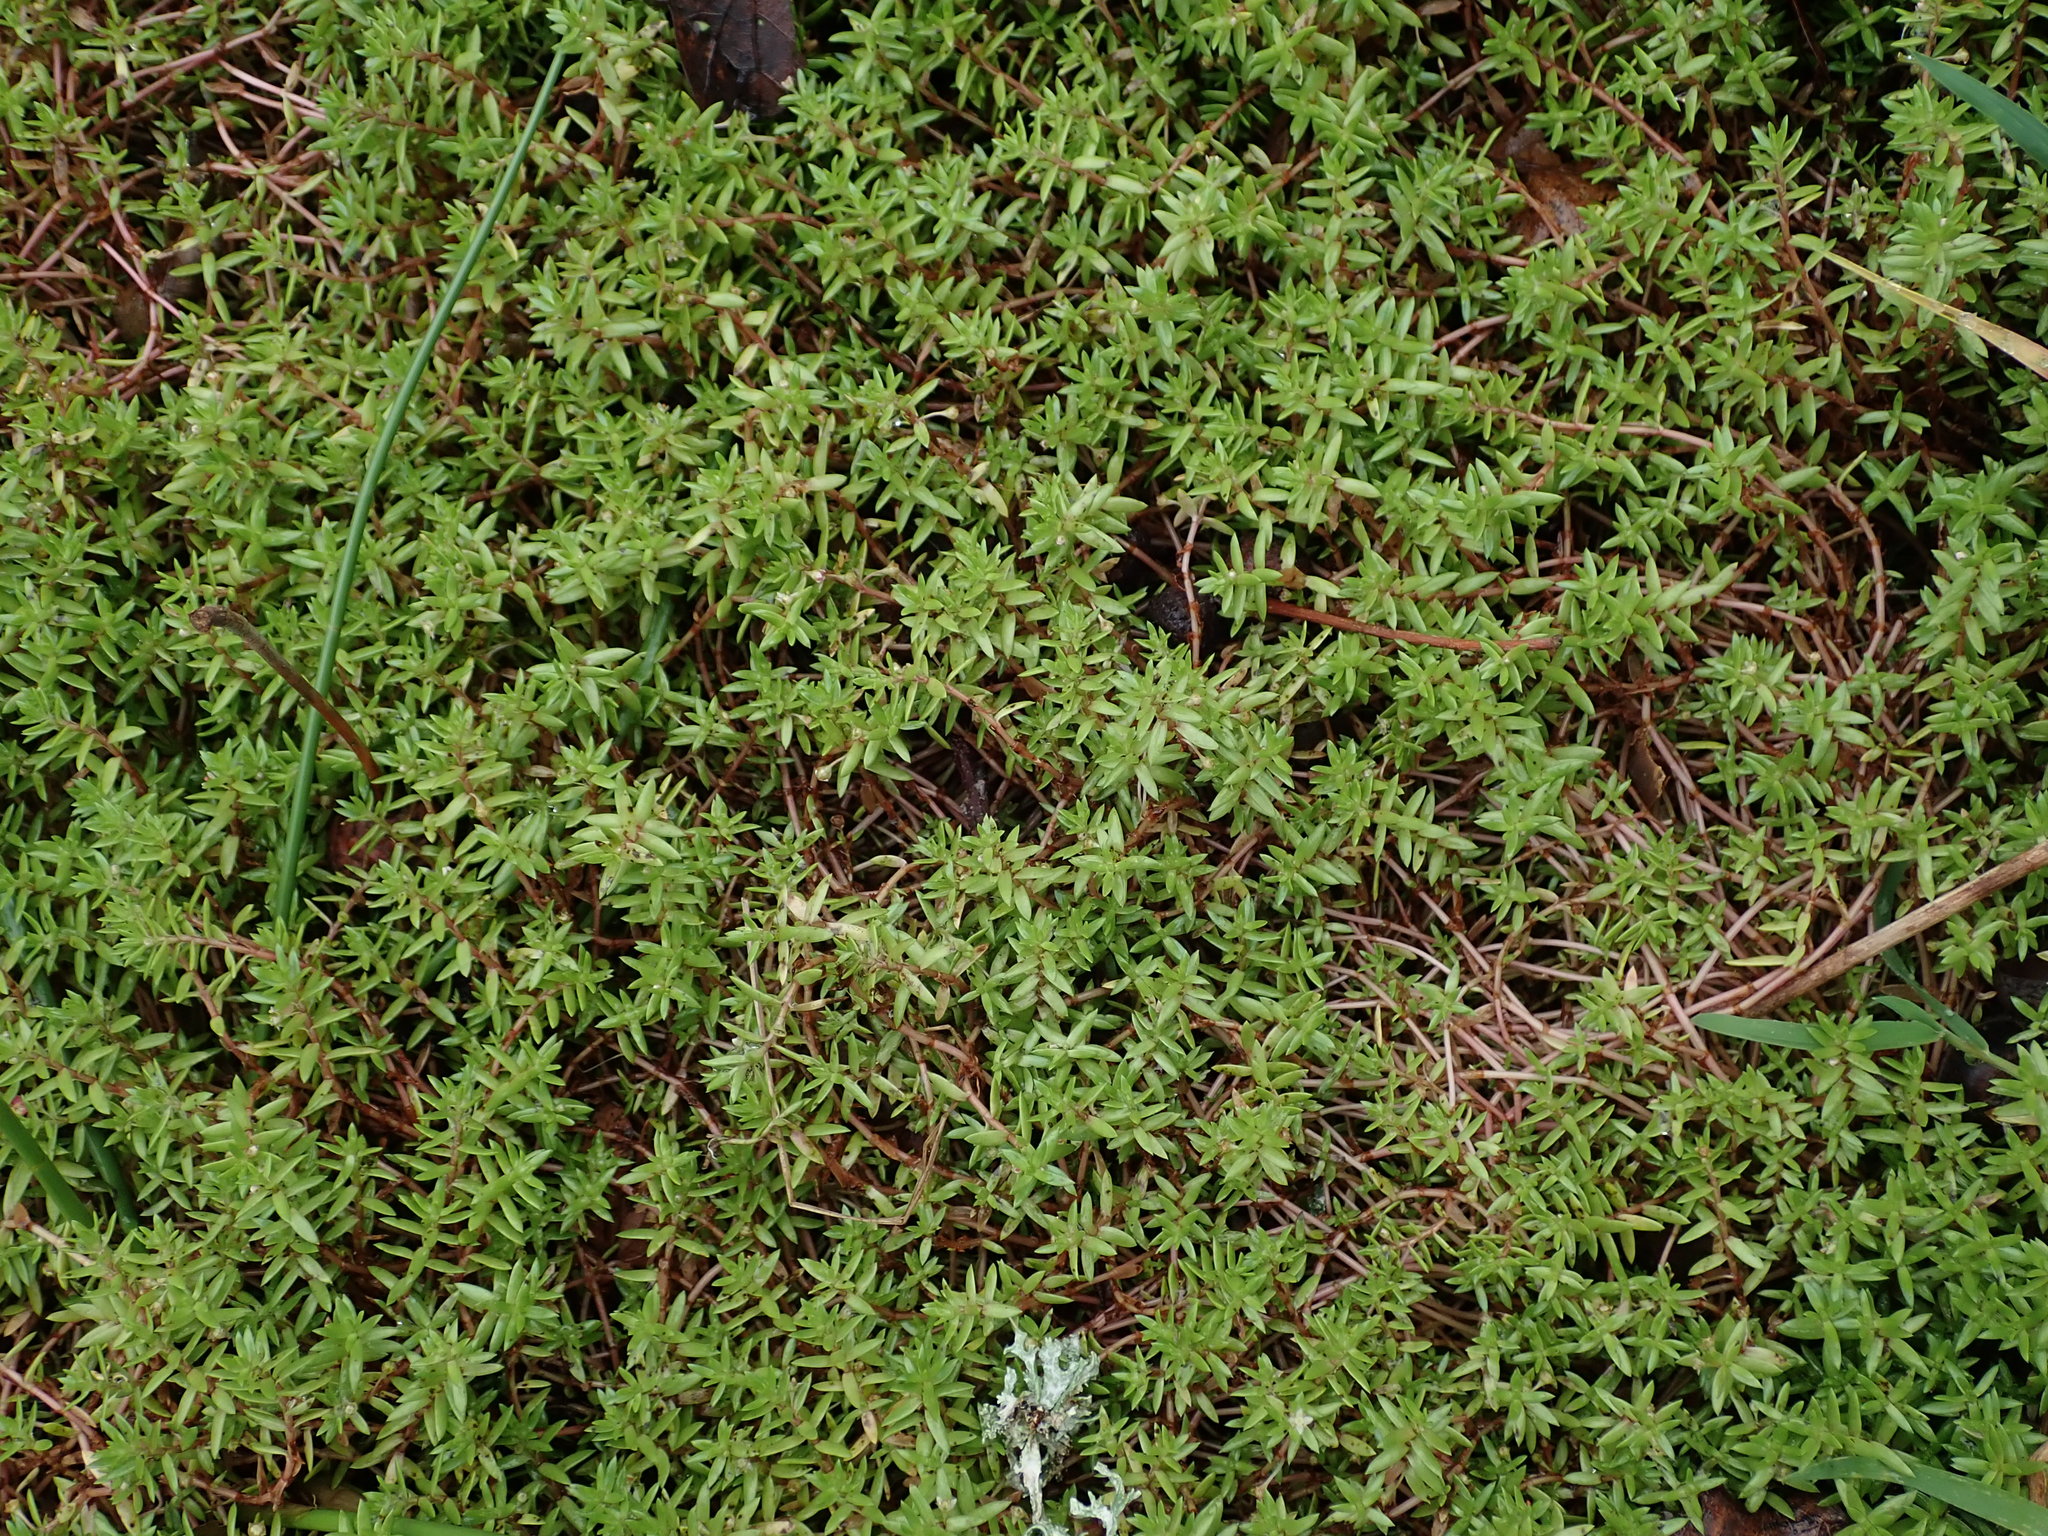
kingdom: Plantae
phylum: Tracheophyta
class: Magnoliopsida
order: Saxifragales
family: Crassulaceae
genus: Crassula
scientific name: Crassula helmsii
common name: New zealand pigmyweed
